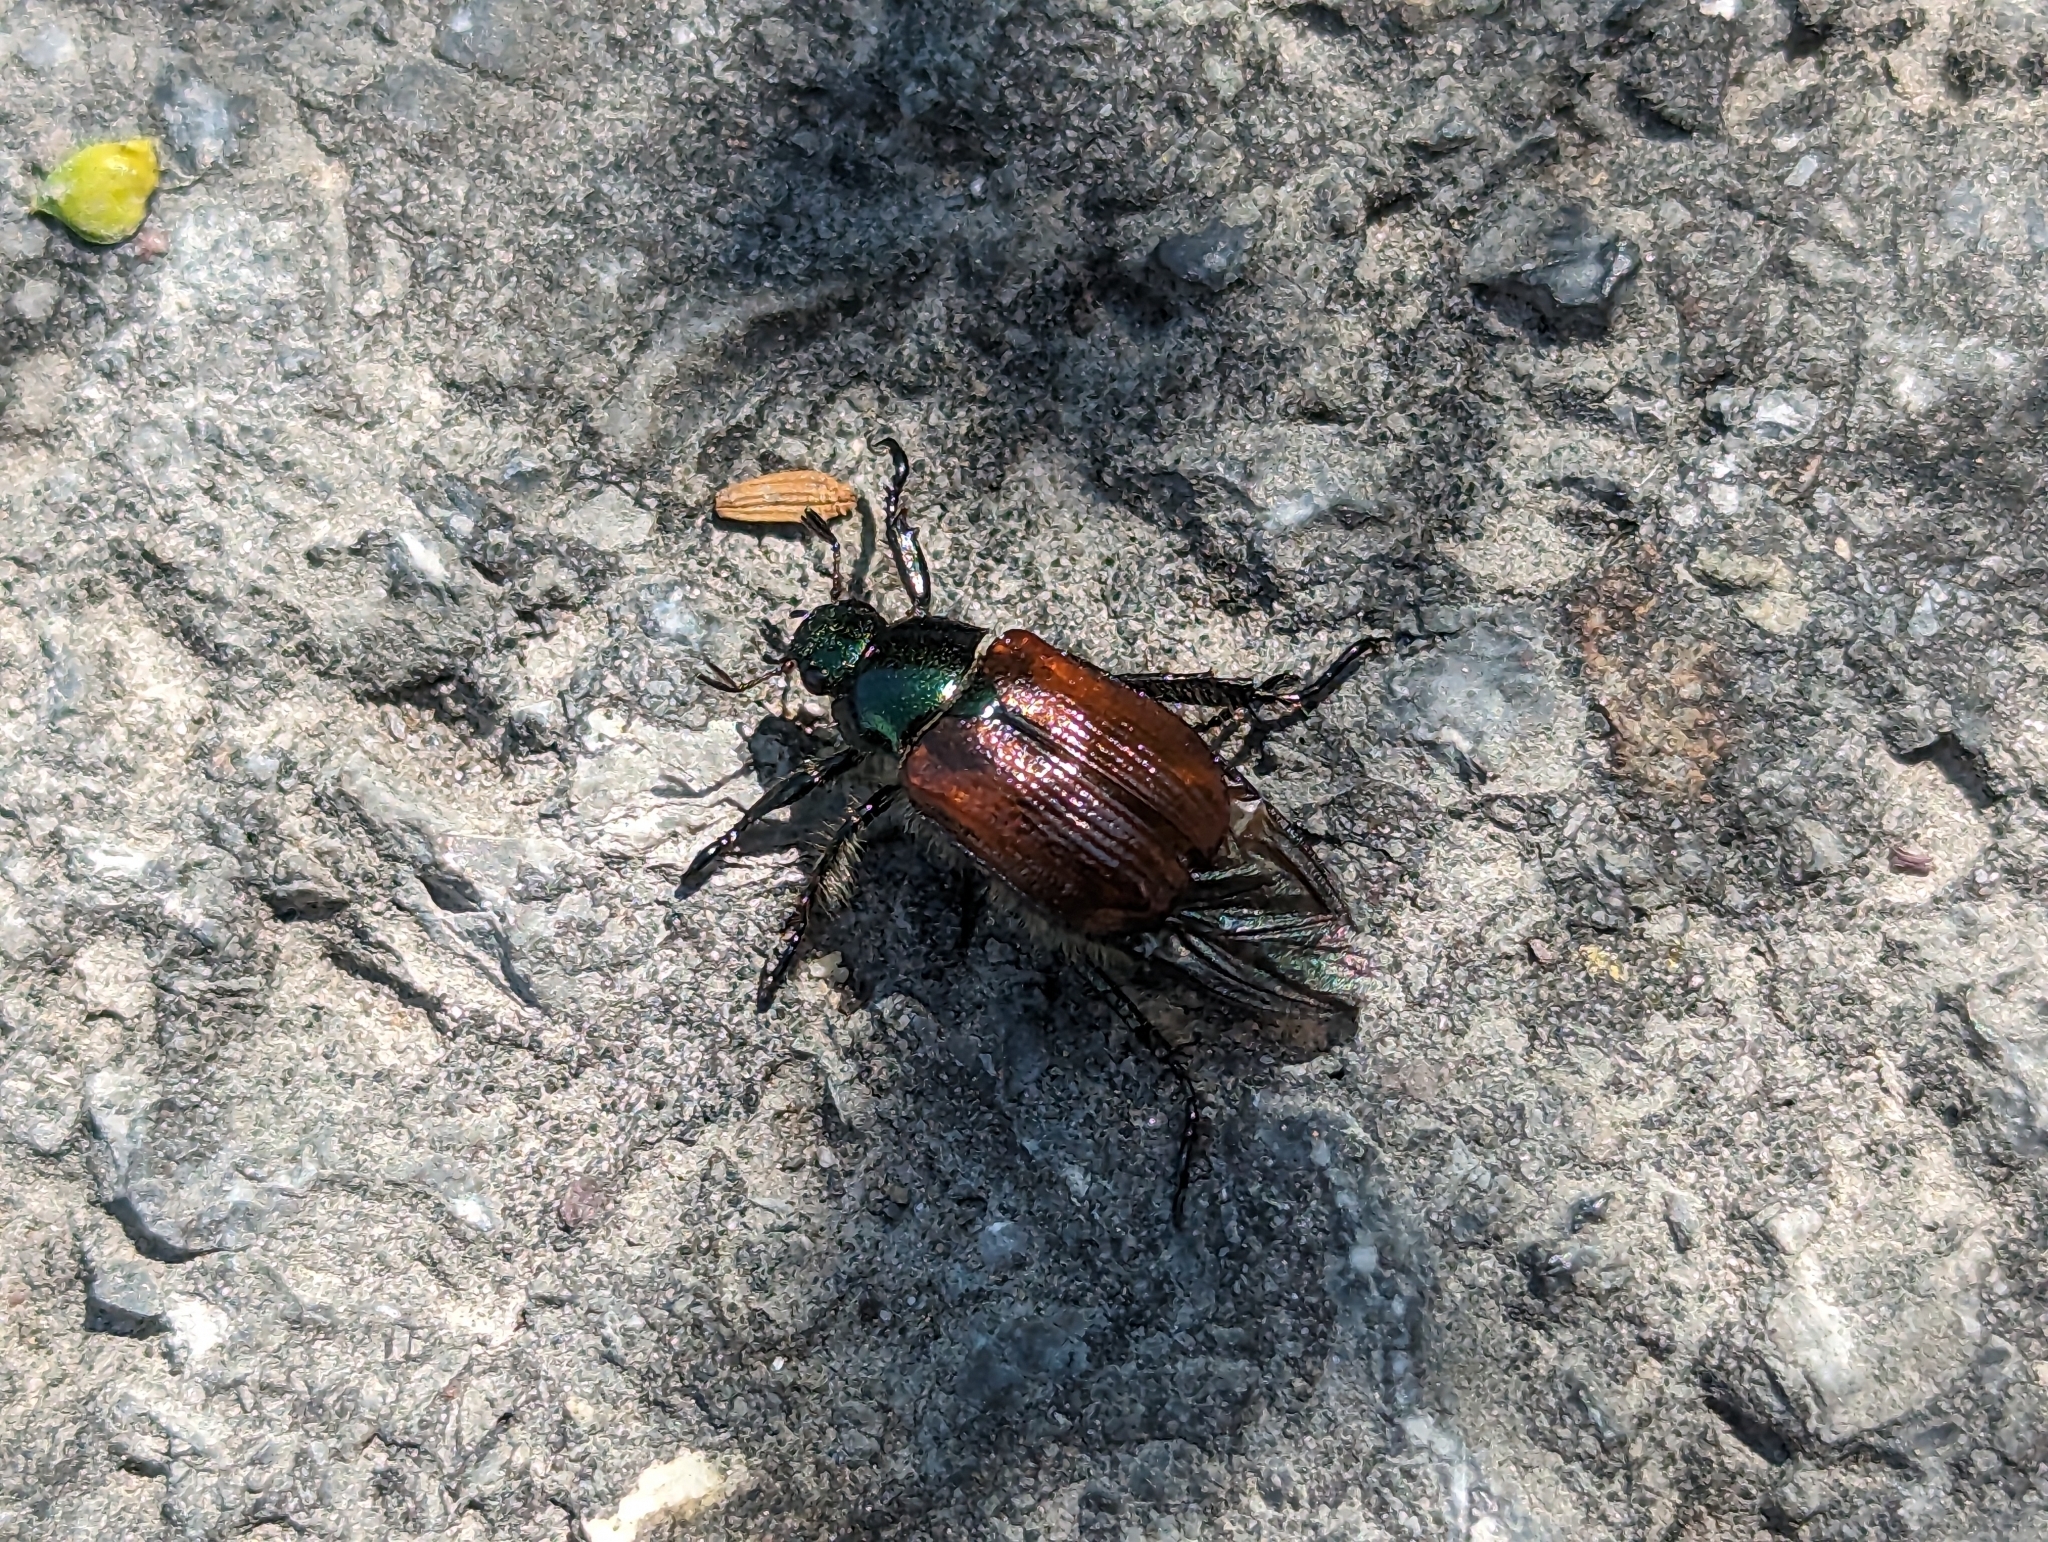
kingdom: Animalia
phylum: Arthropoda
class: Insecta
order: Coleoptera
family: Scarabaeidae
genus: Phyllopertha
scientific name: Phyllopertha horticola
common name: Garden chafer
